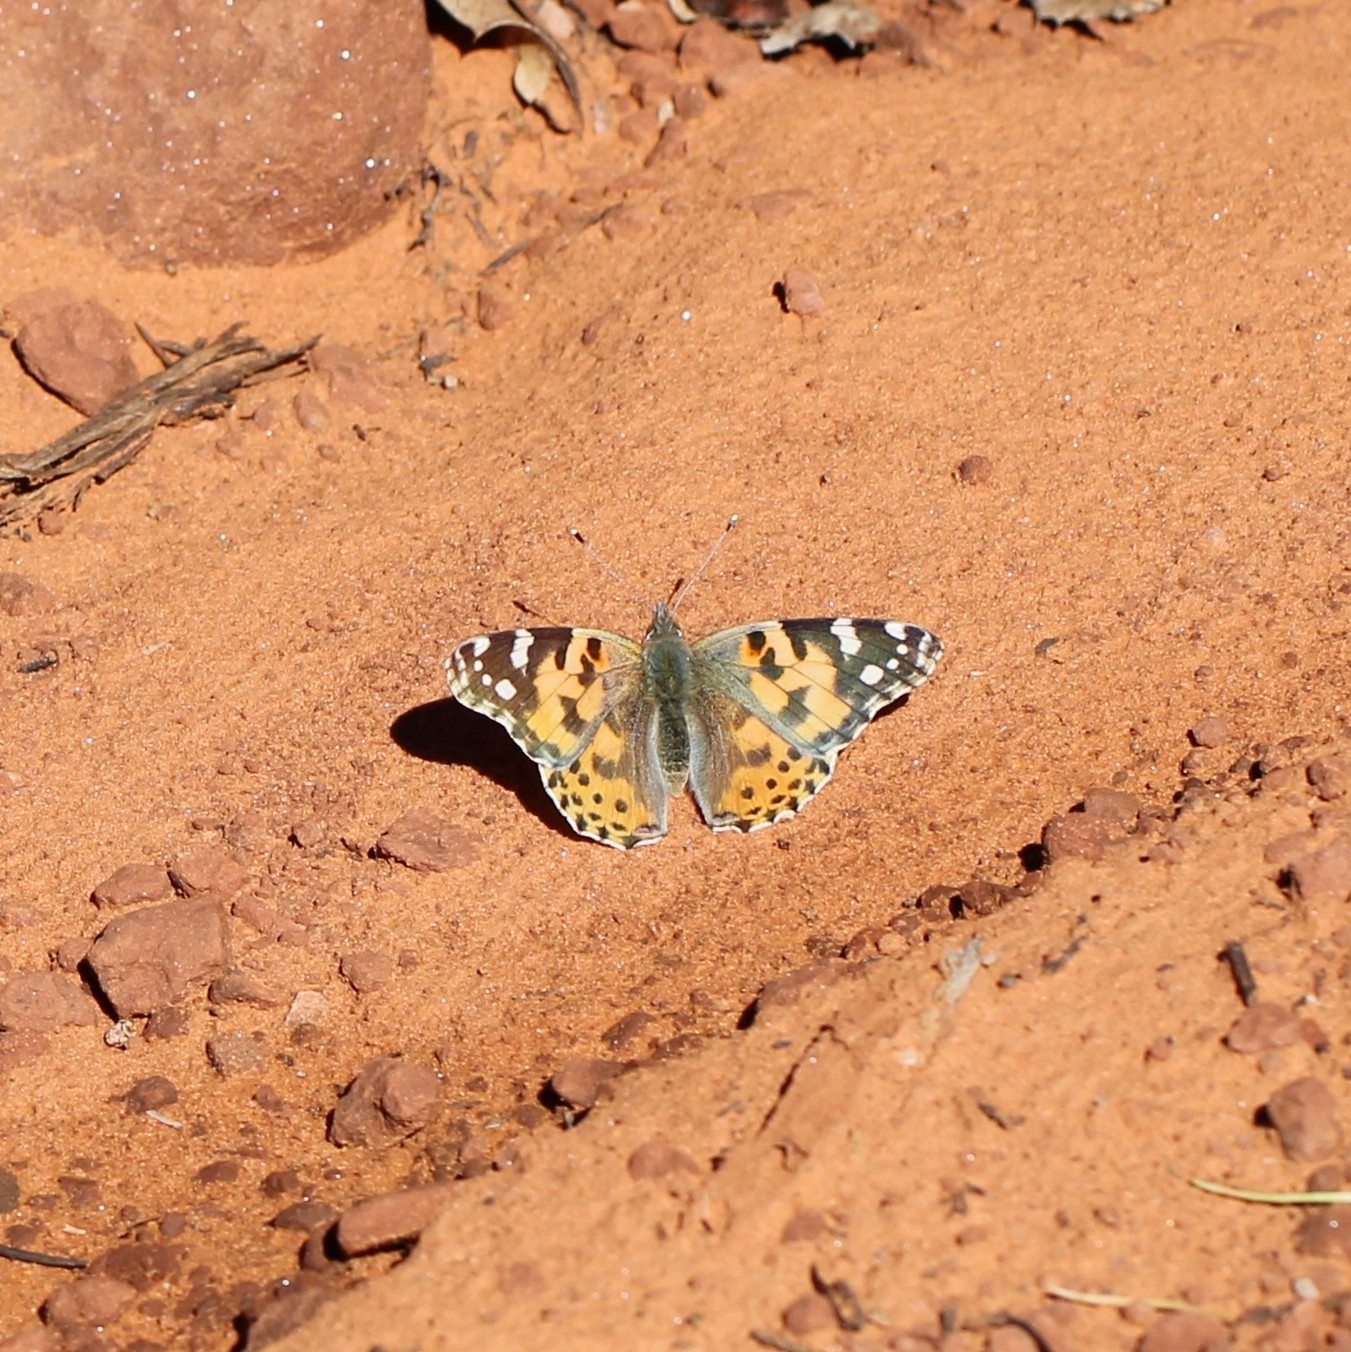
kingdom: Animalia
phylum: Arthropoda
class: Insecta
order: Lepidoptera
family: Nymphalidae
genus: Vanessa
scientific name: Vanessa cardui
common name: Painted lady
